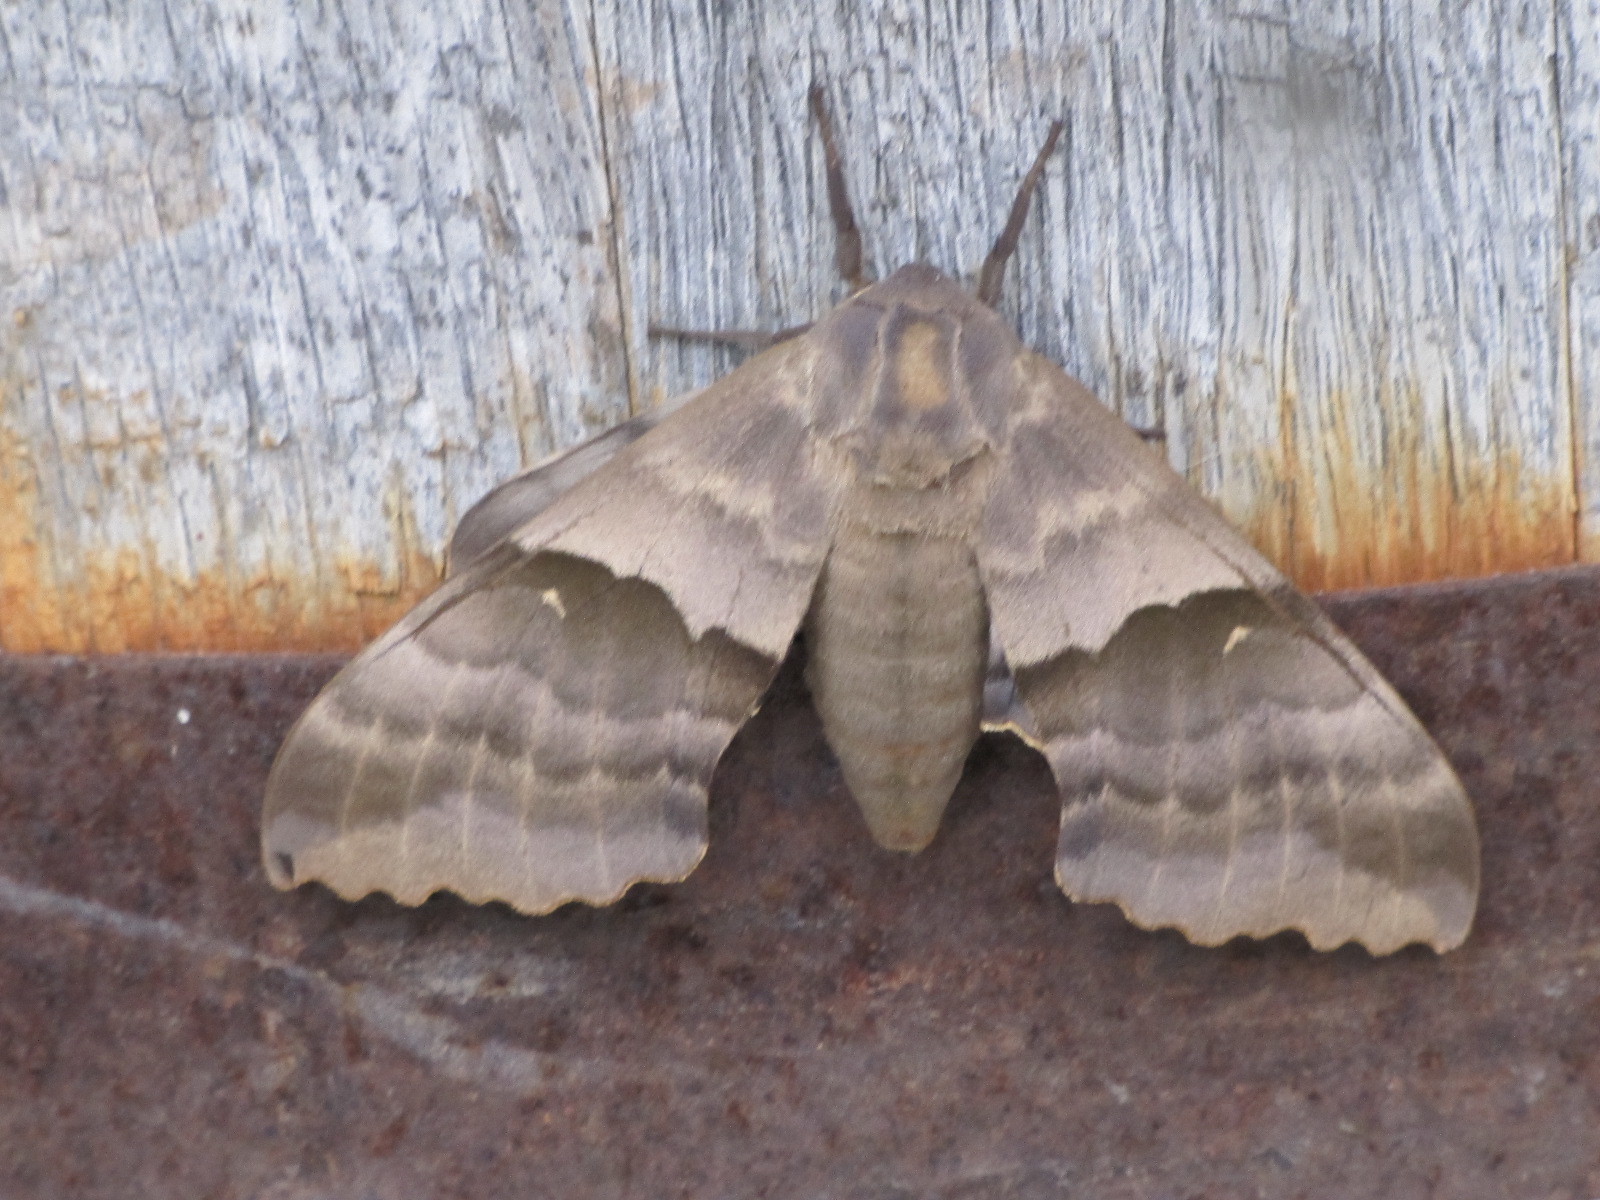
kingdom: Animalia
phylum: Arthropoda
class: Insecta
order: Lepidoptera
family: Sphingidae
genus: Pachysphinx
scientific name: Pachysphinx modesta
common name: Big poplar sphinx
